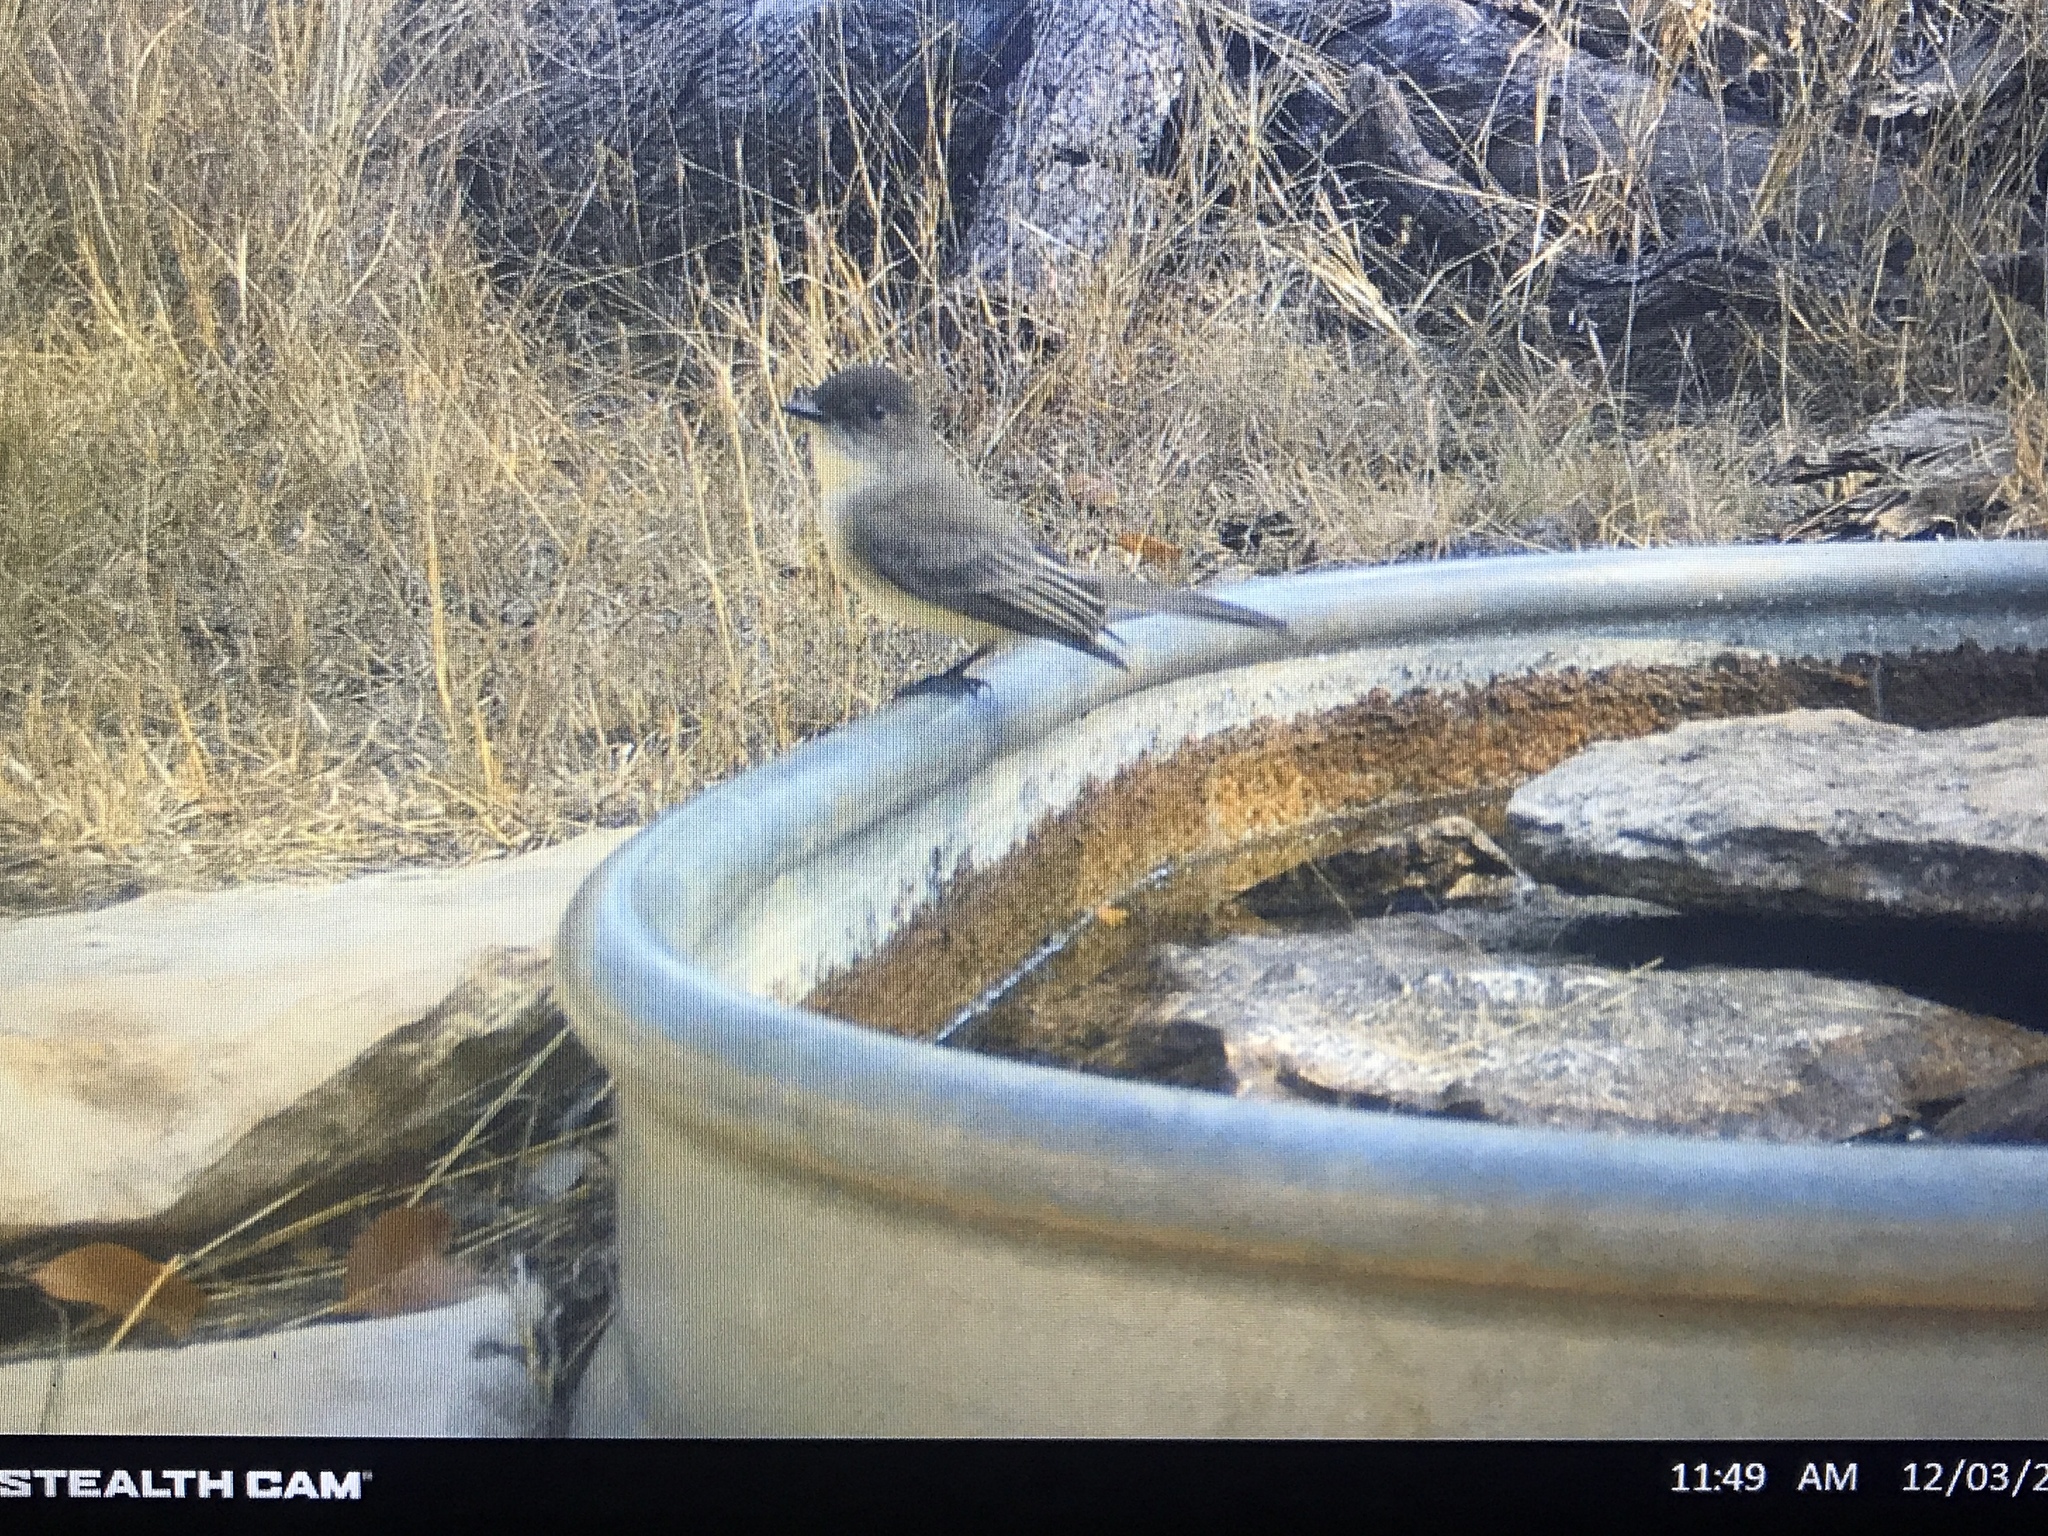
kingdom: Animalia
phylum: Chordata
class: Aves
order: Passeriformes
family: Tyrannidae
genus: Sayornis
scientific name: Sayornis phoebe
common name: Eastern phoebe
